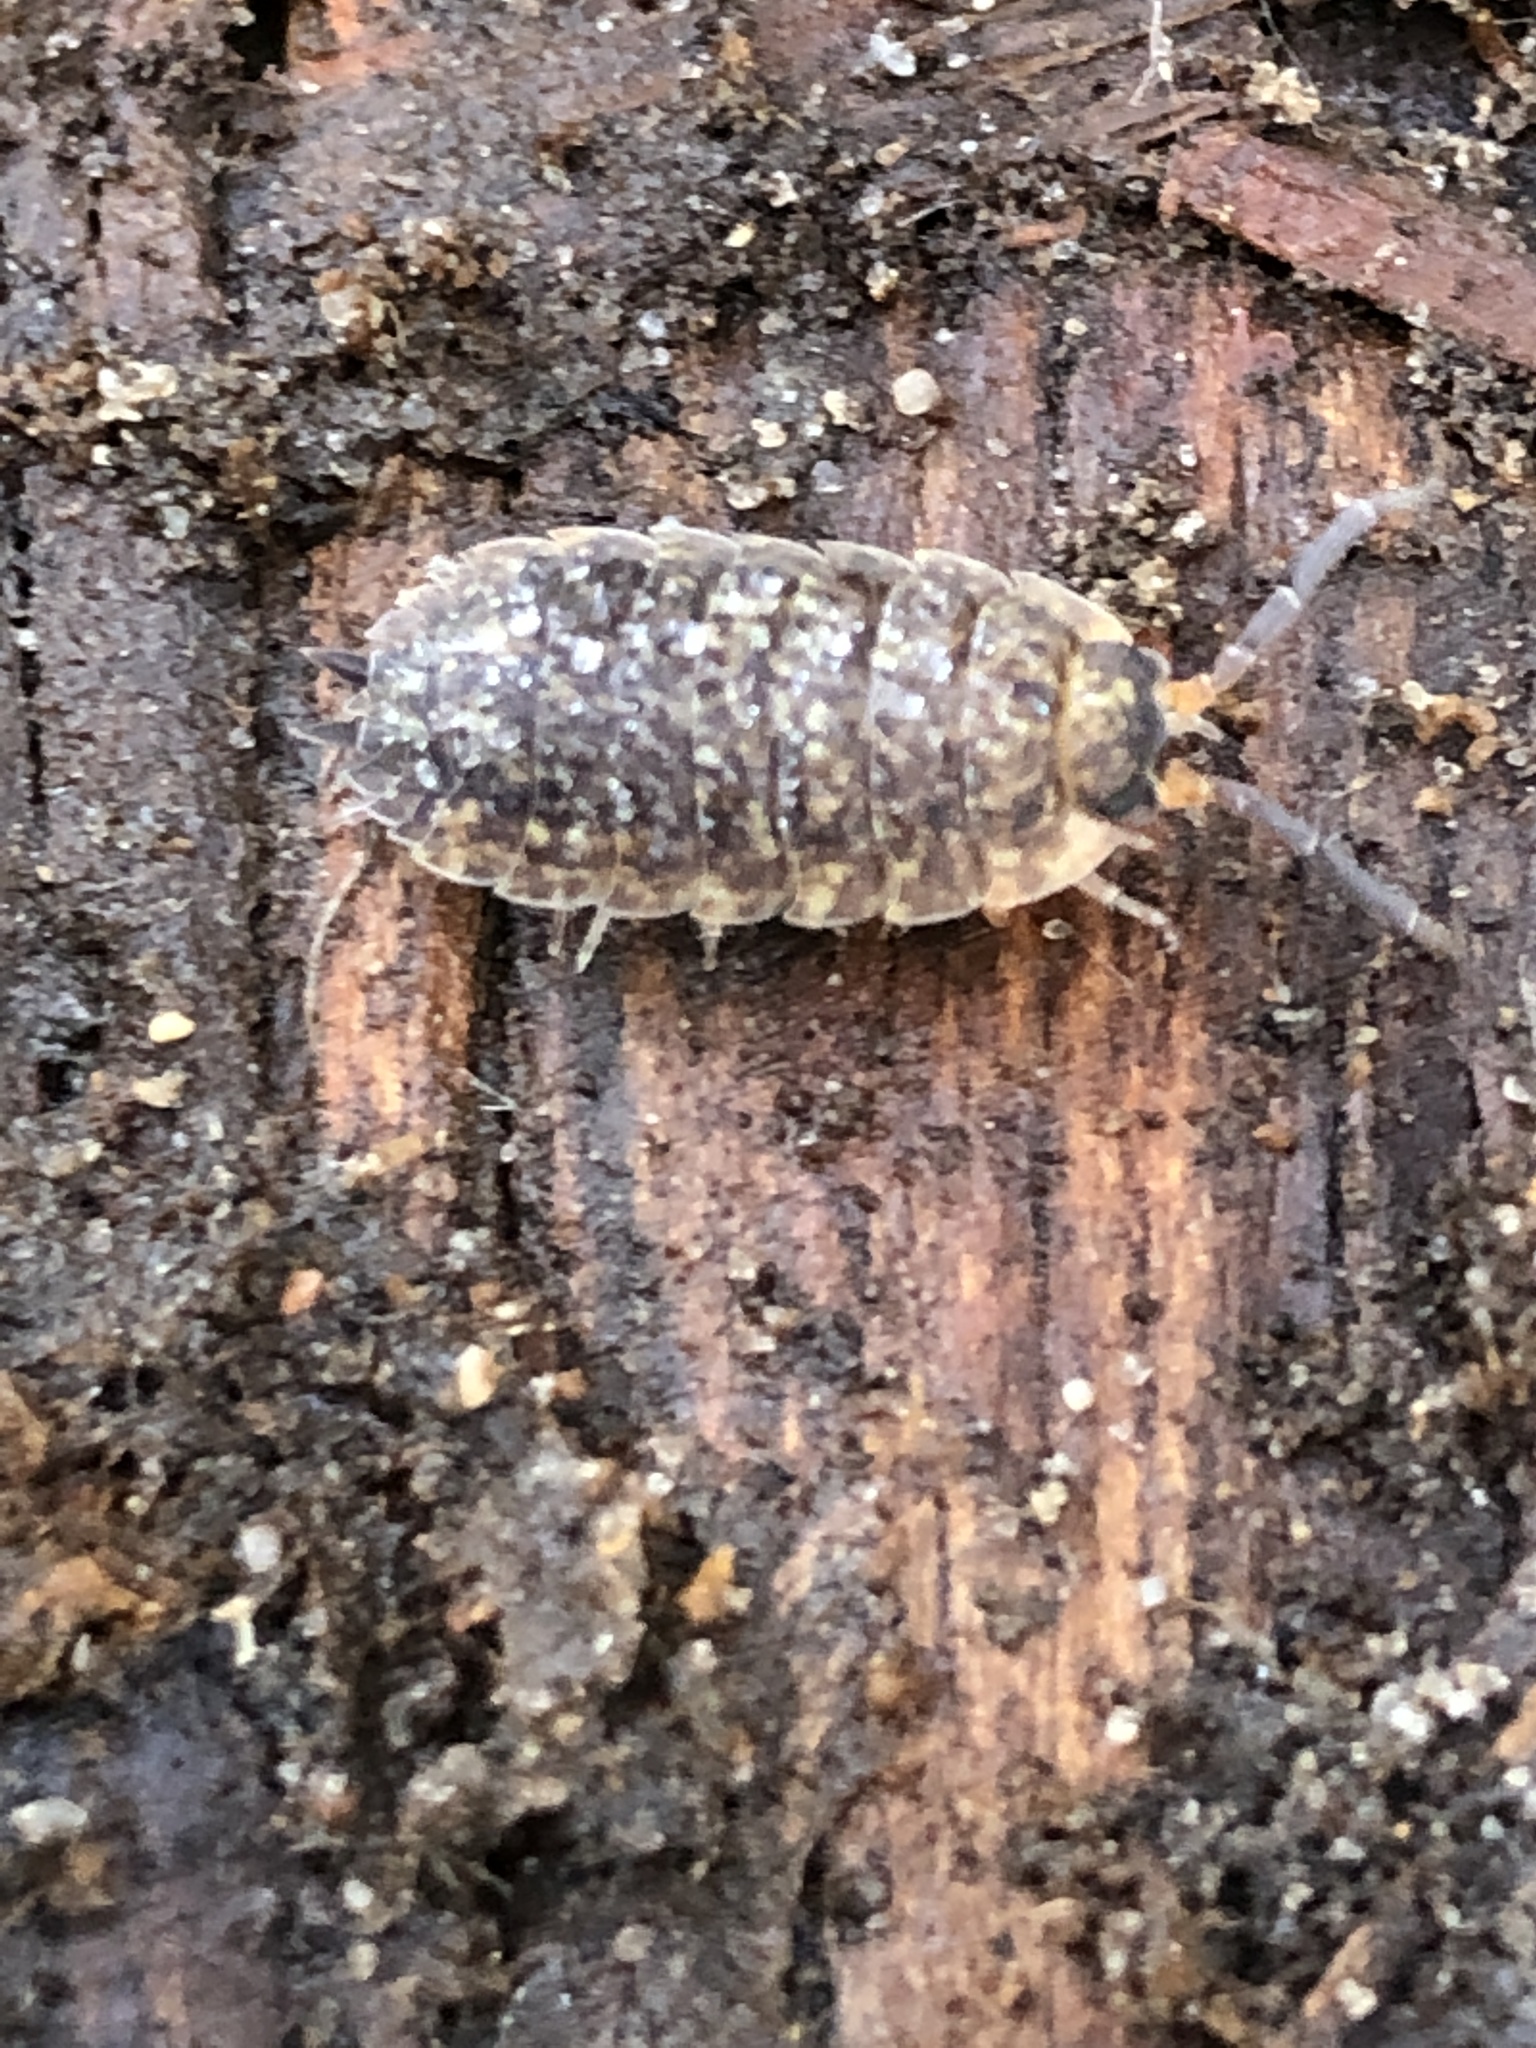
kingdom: Animalia
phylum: Arthropoda
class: Malacostraca
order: Isopoda
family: Porcellionidae
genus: Porcellio
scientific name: Porcellio scaber
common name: Common rough woodlouse
